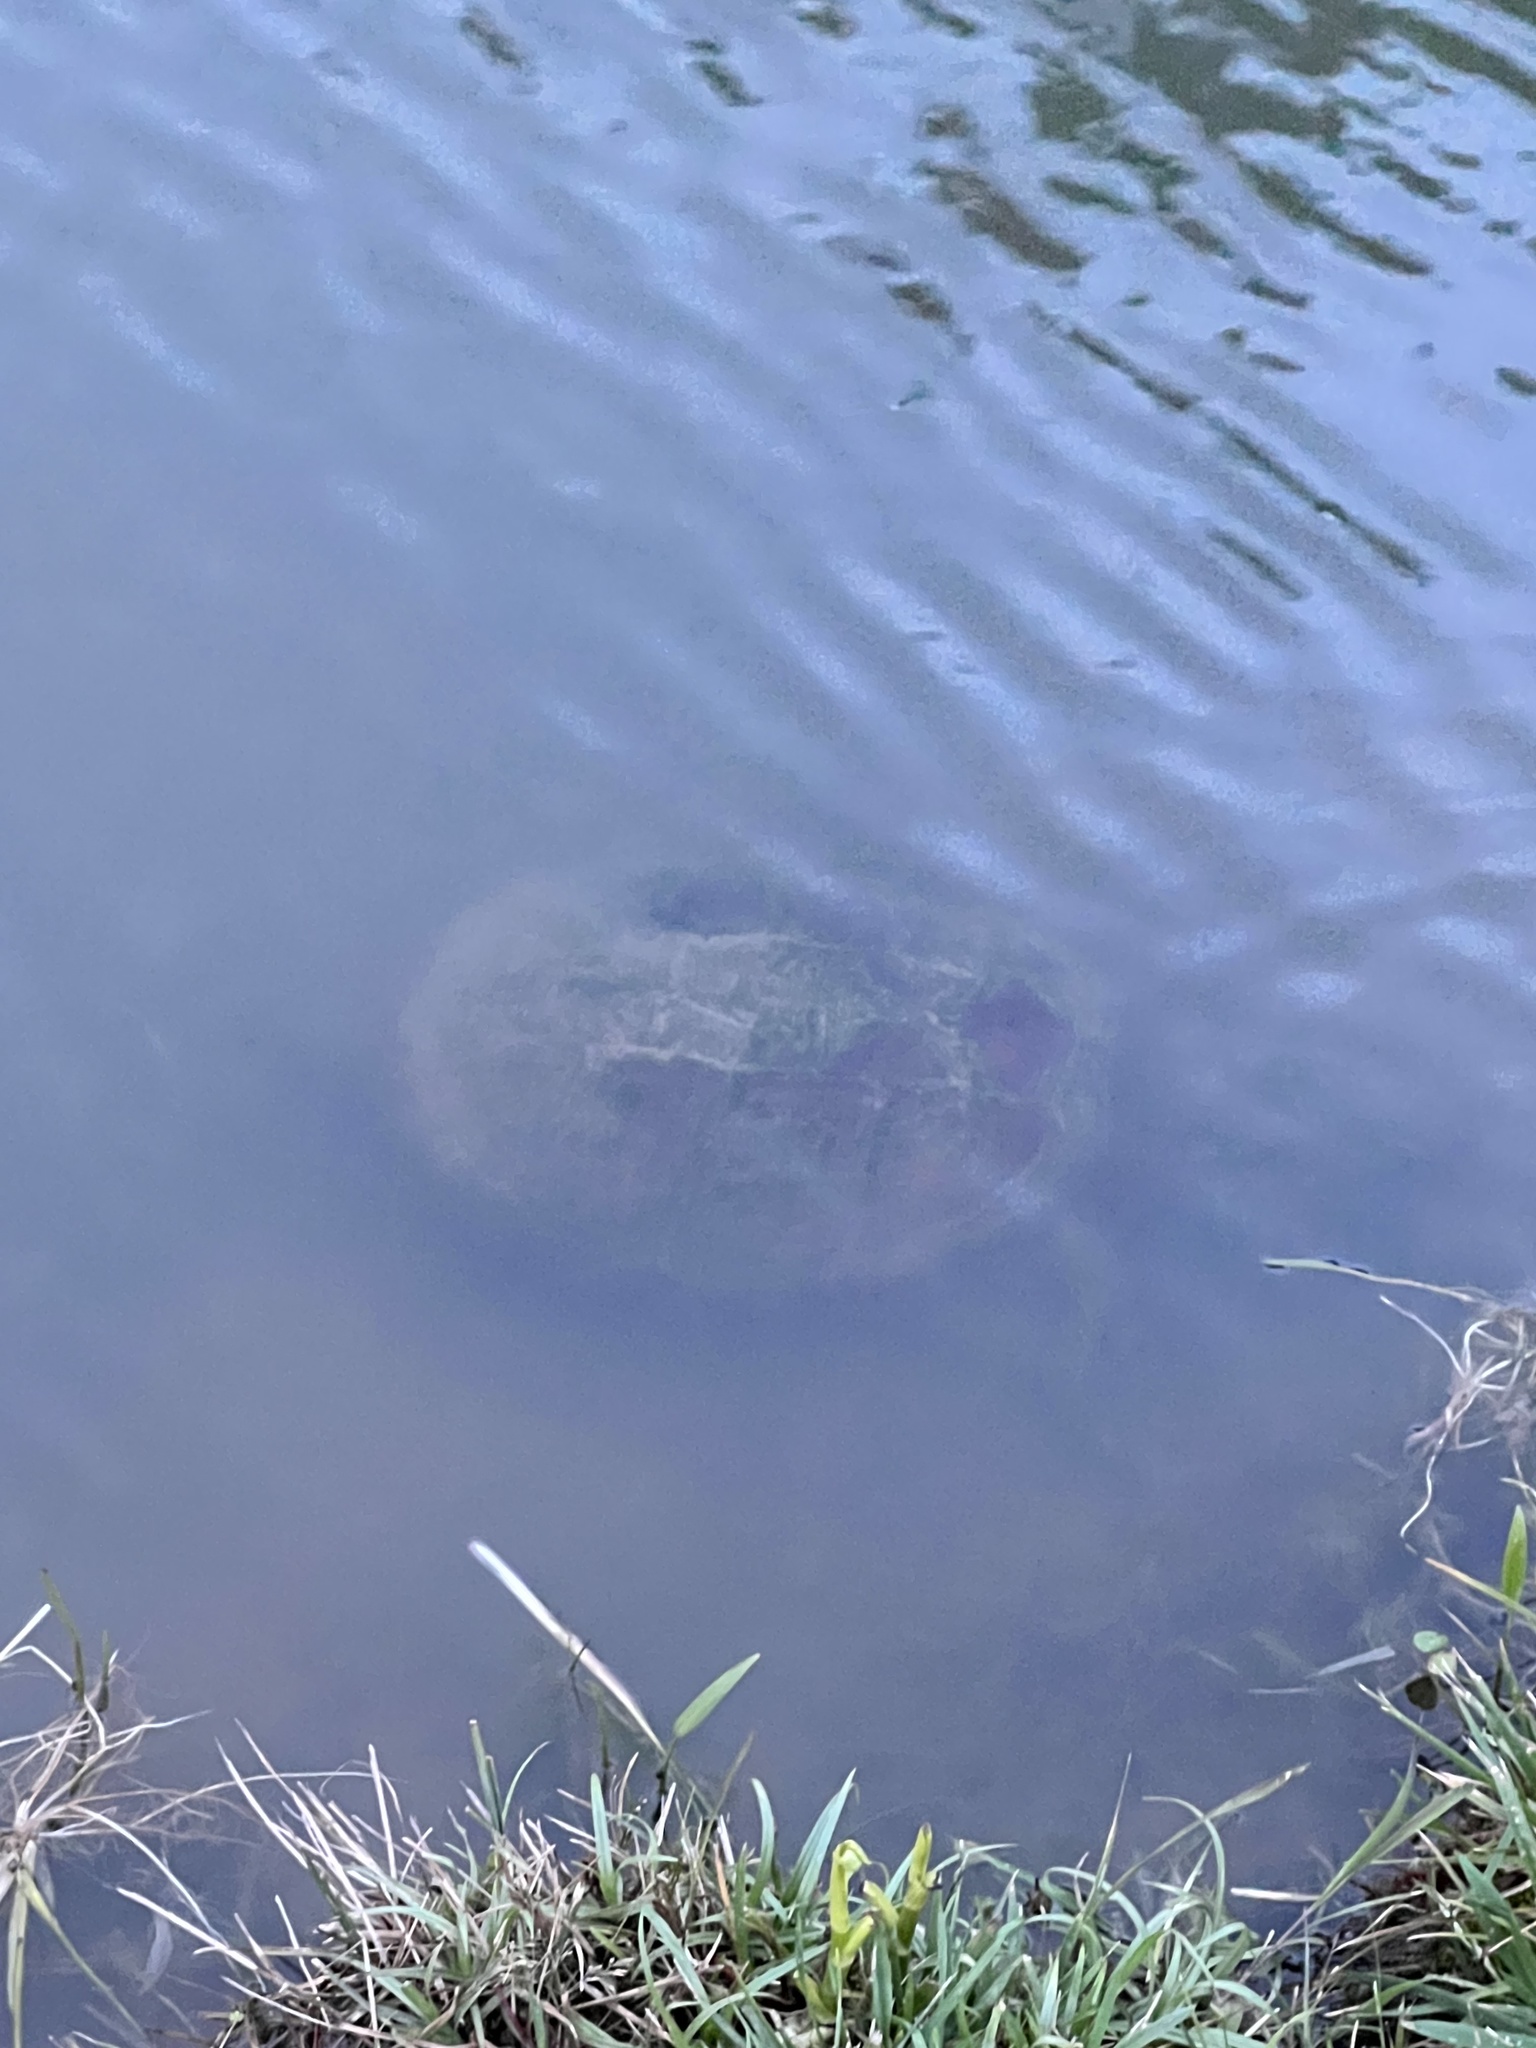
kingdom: Animalia
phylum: Chordata
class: Testudines
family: Chelydridae
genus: Chelydra
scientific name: Chelydra serpentina
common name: Common snapping turtle
